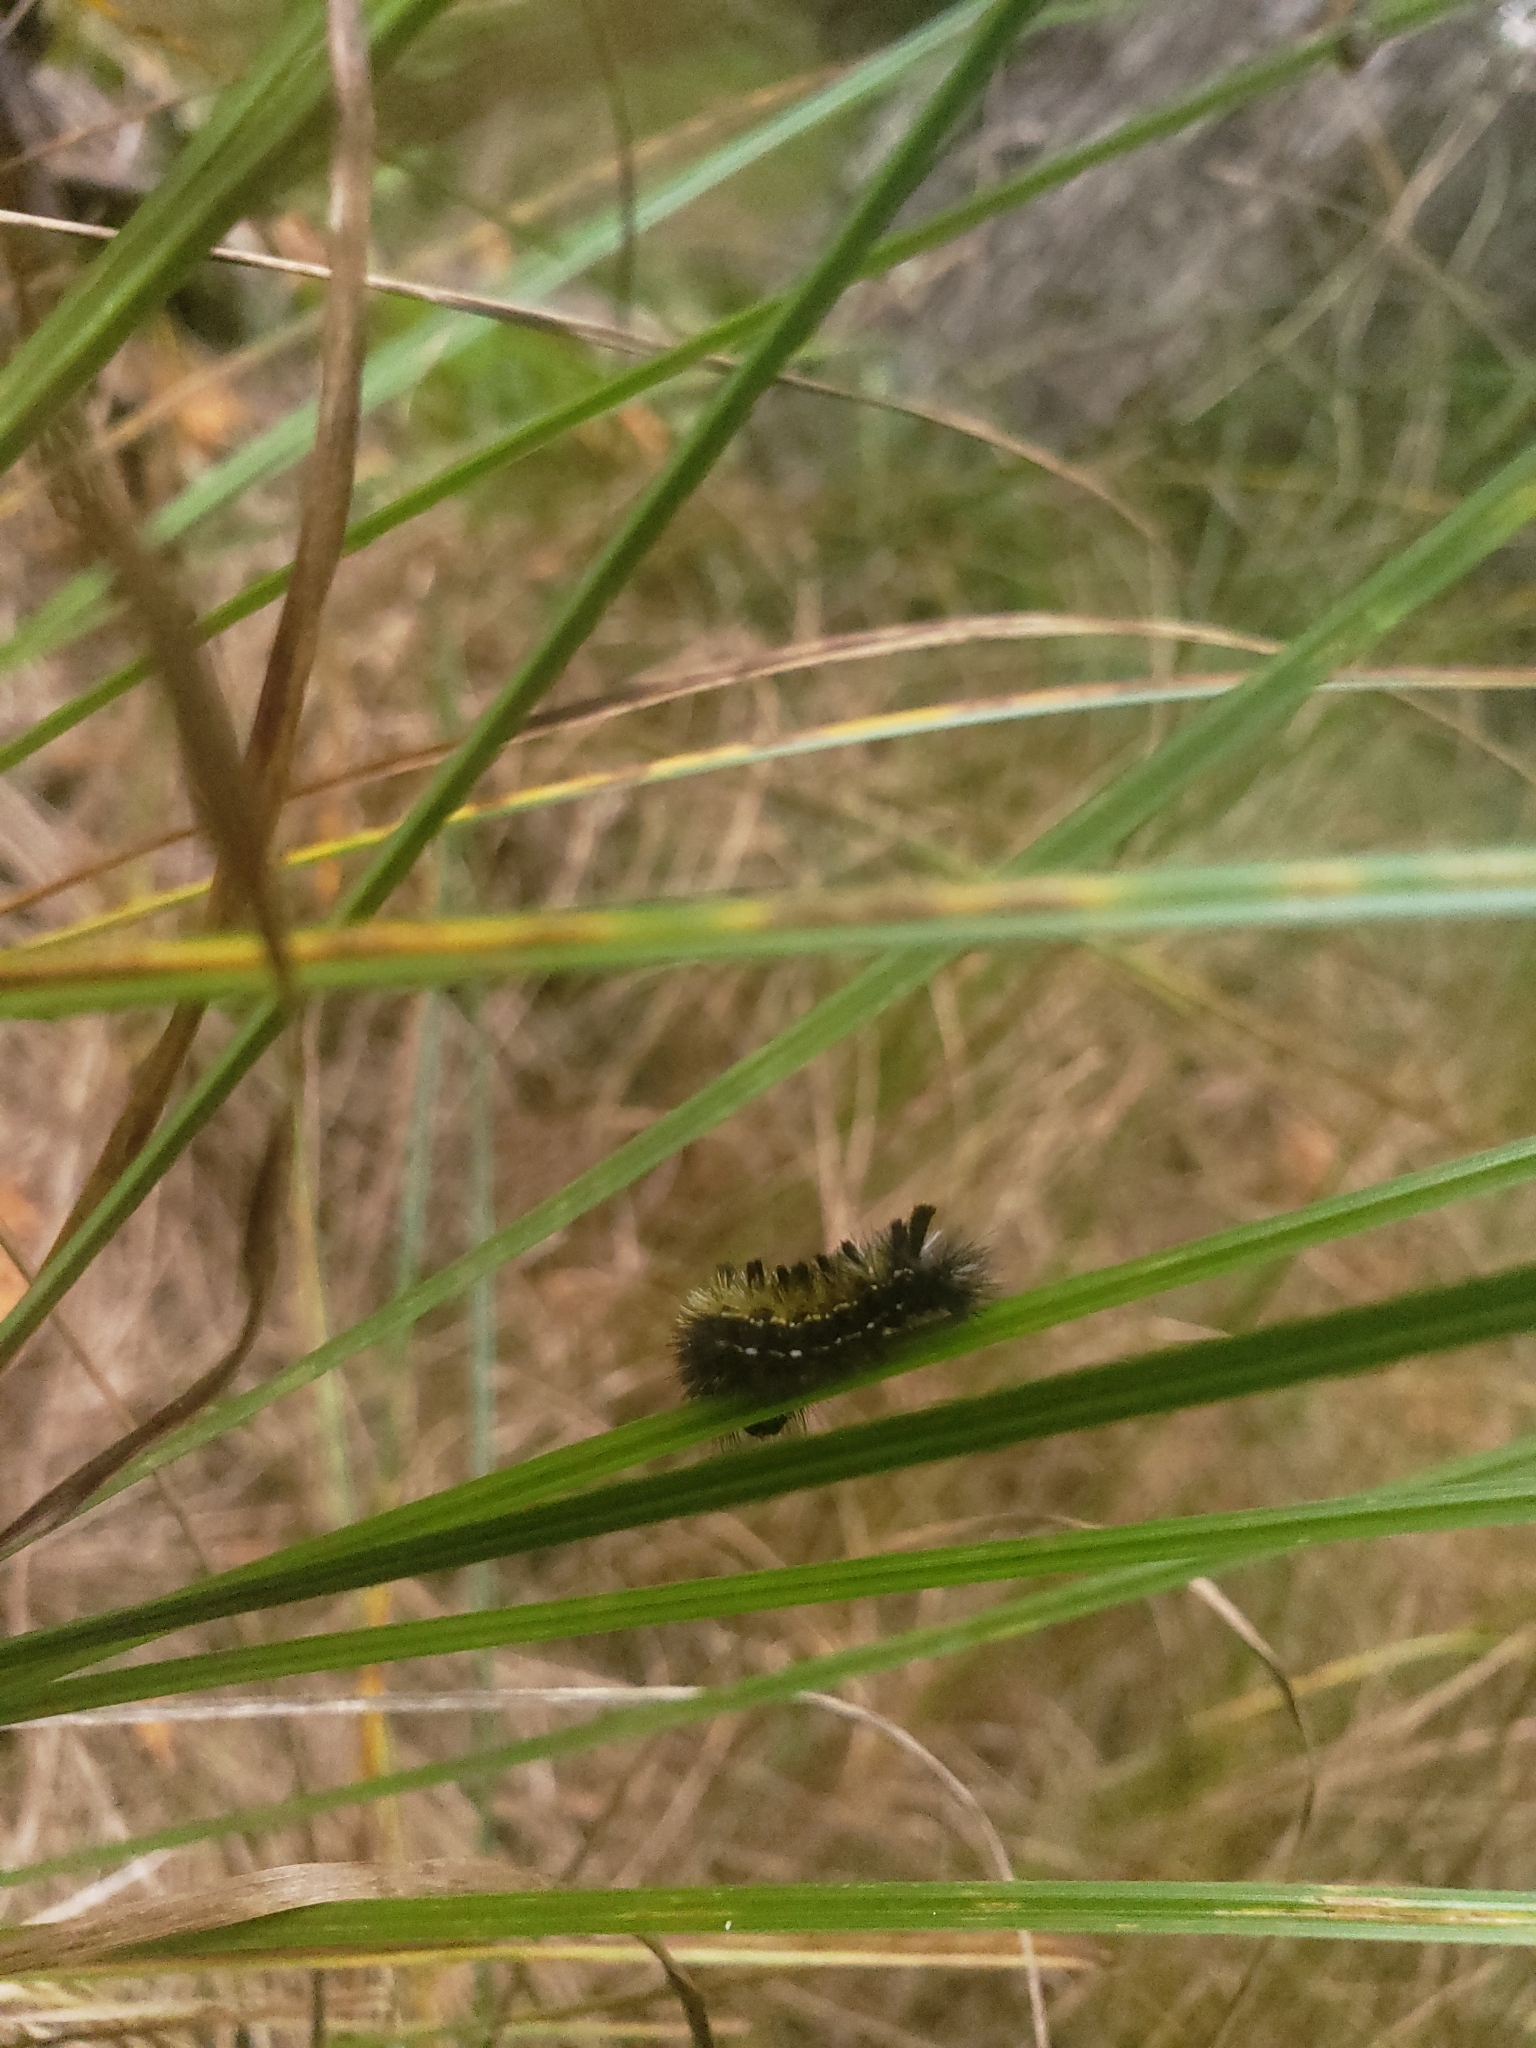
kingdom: Animalia
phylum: Arthropoda
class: Insecta
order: Lepidoptera
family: Erebidae
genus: Ctenucha
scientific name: Ctenucha virginica
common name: Virginia ctenucha moth
